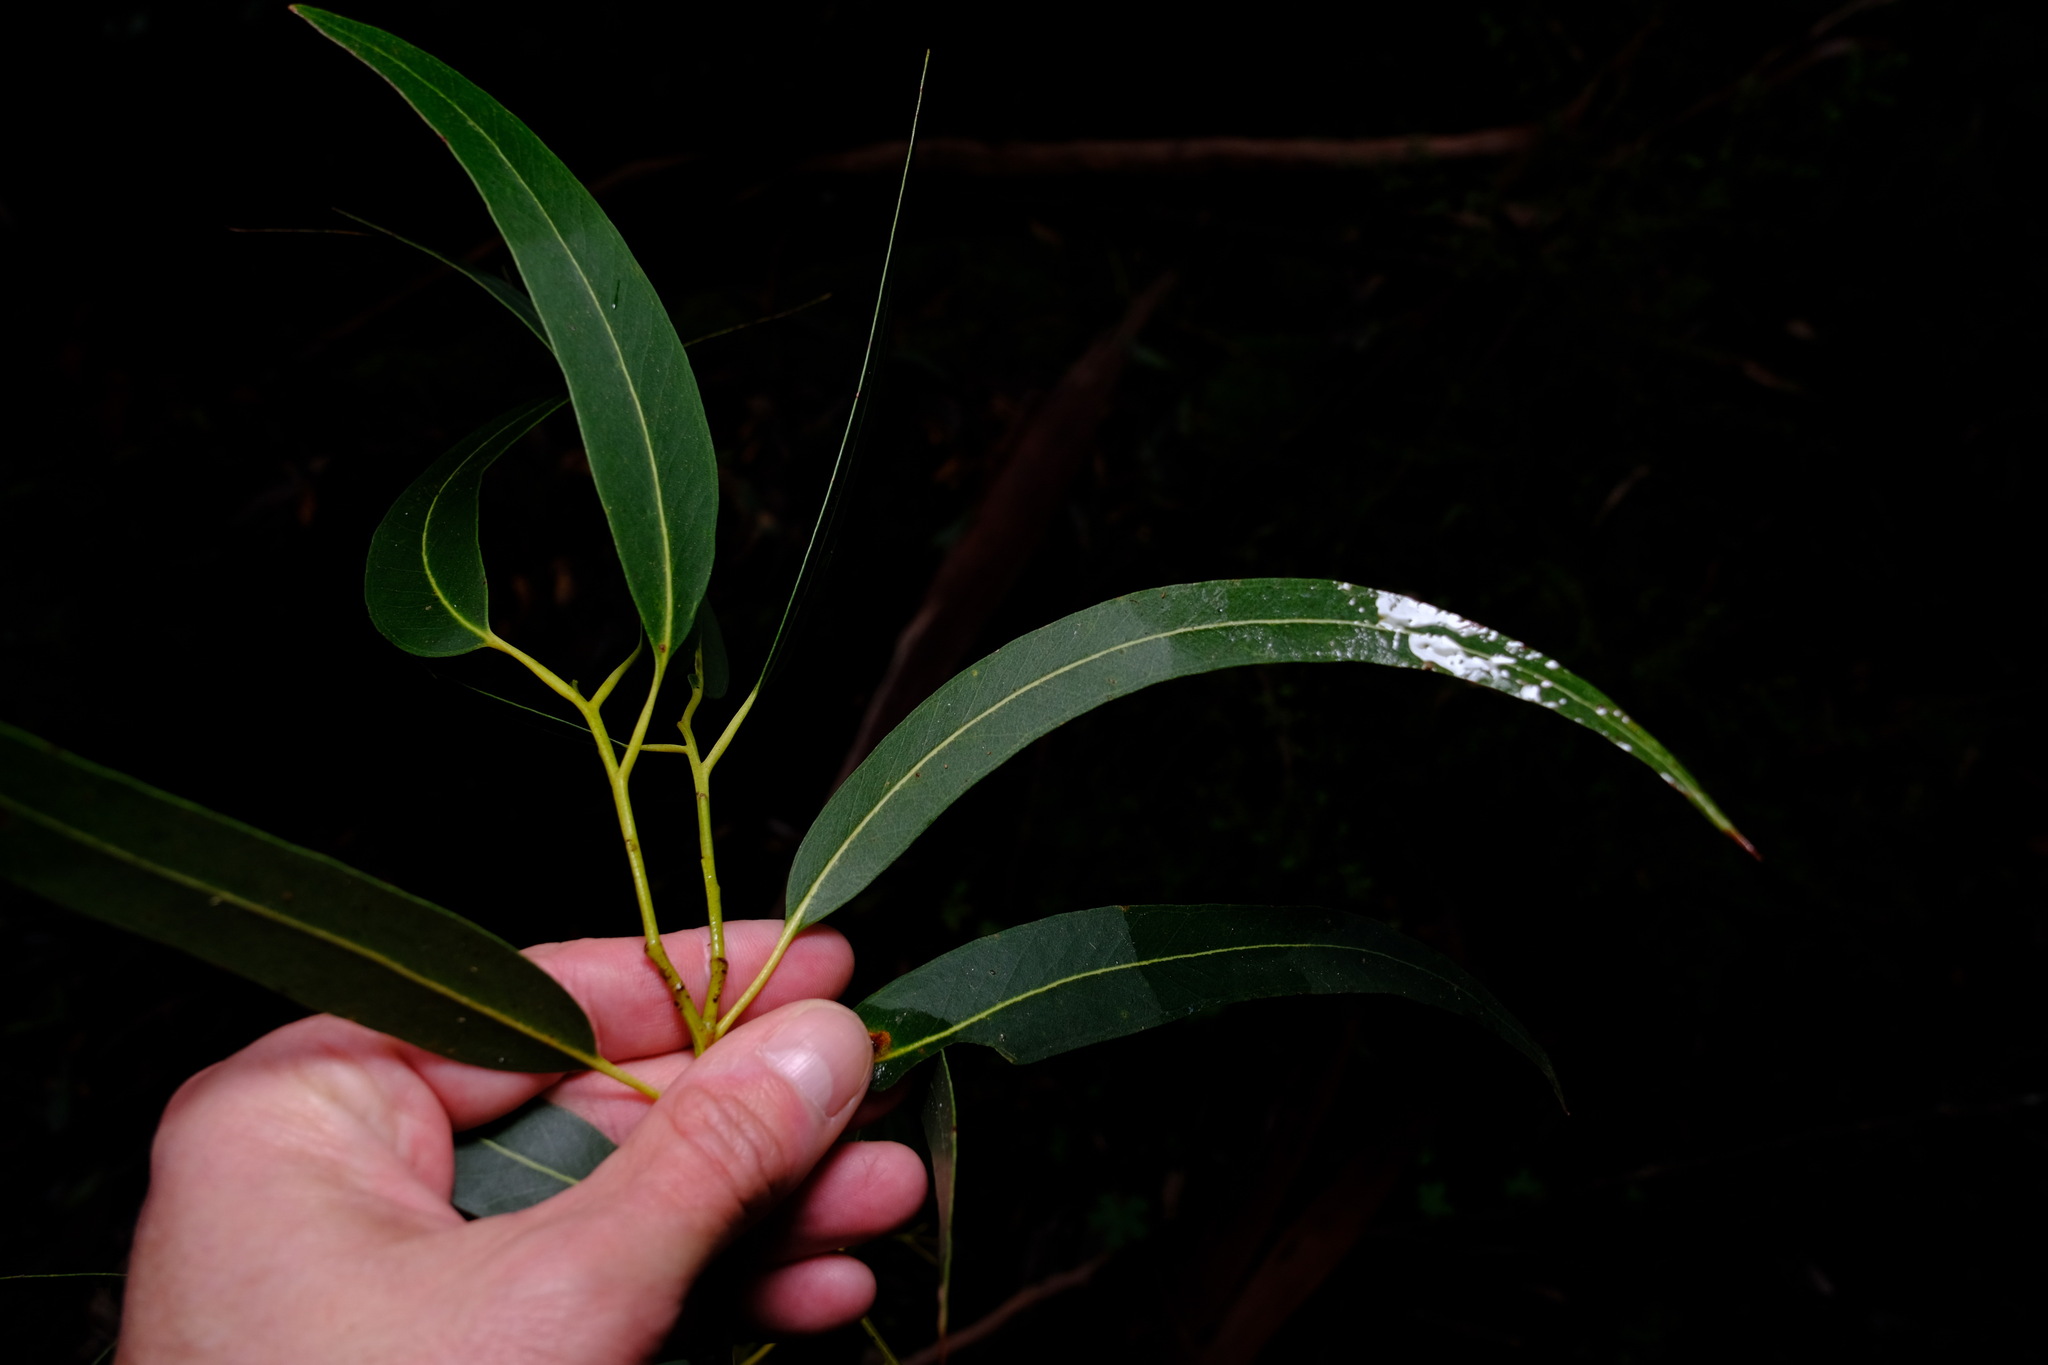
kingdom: Plantae
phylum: Tracheophyta
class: Magnoliopsida
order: Myrtales
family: Myrtaceae
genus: Eucalyptus
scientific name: Eucalyptus cypellocarpa
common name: Mountain grey gum
